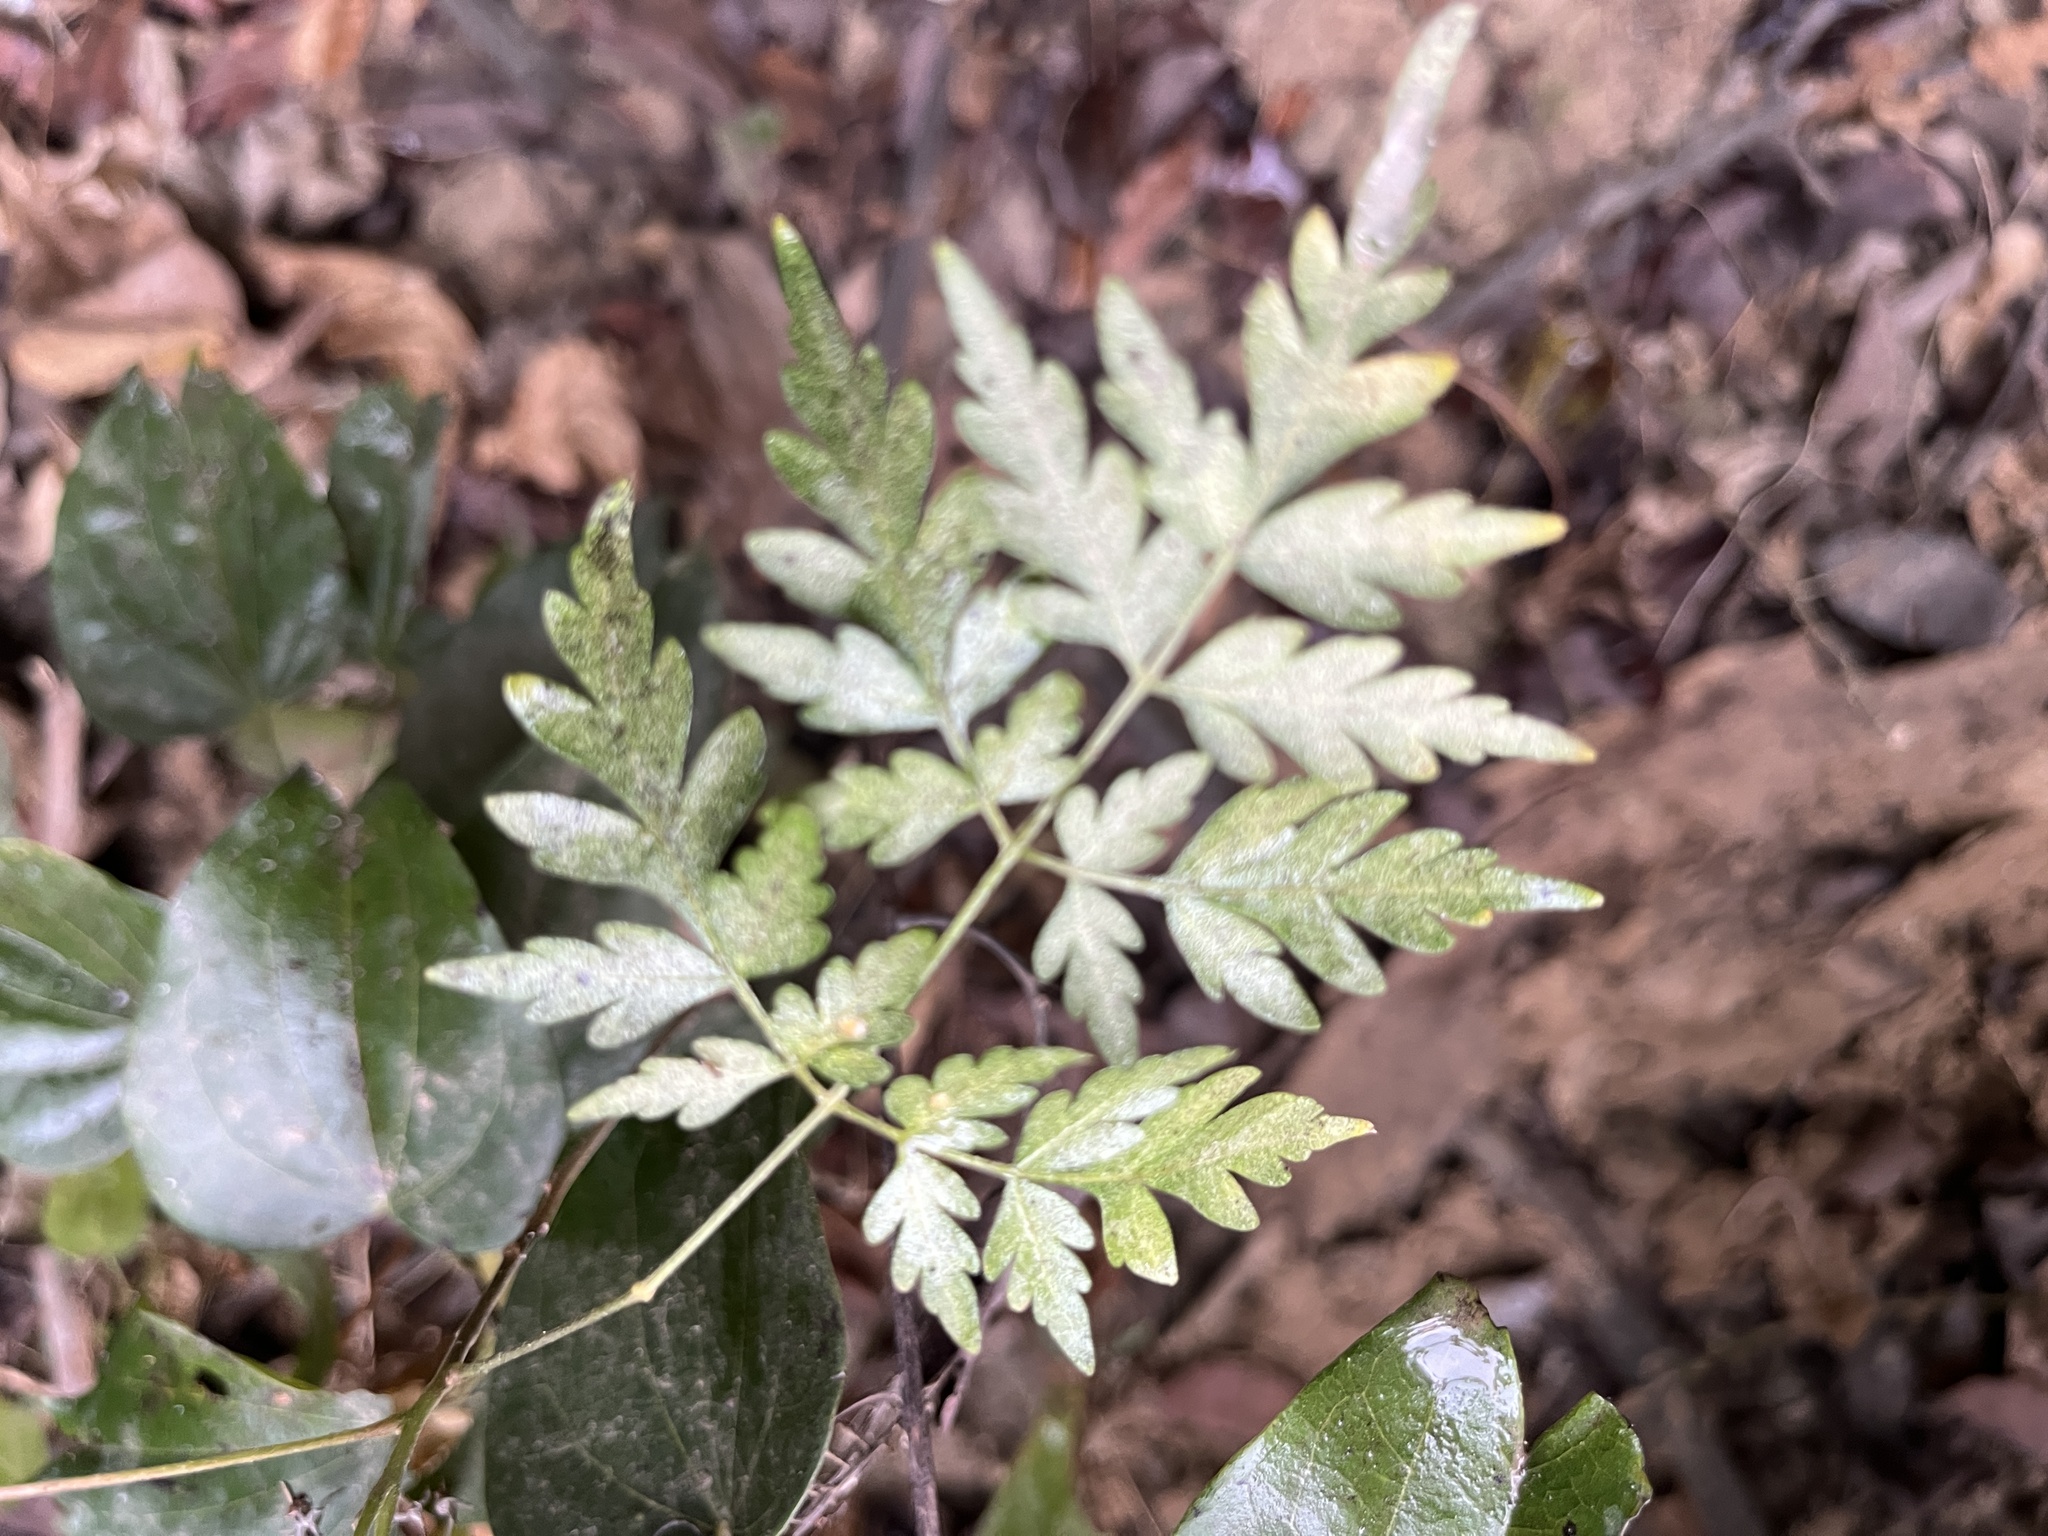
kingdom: Plantae
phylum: Tracheophyta
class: Magnoliopsida
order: Sapindales
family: Sapindaceae
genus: Koelreuteria
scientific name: Koelreuteria elegans
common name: Chinese flame tree
